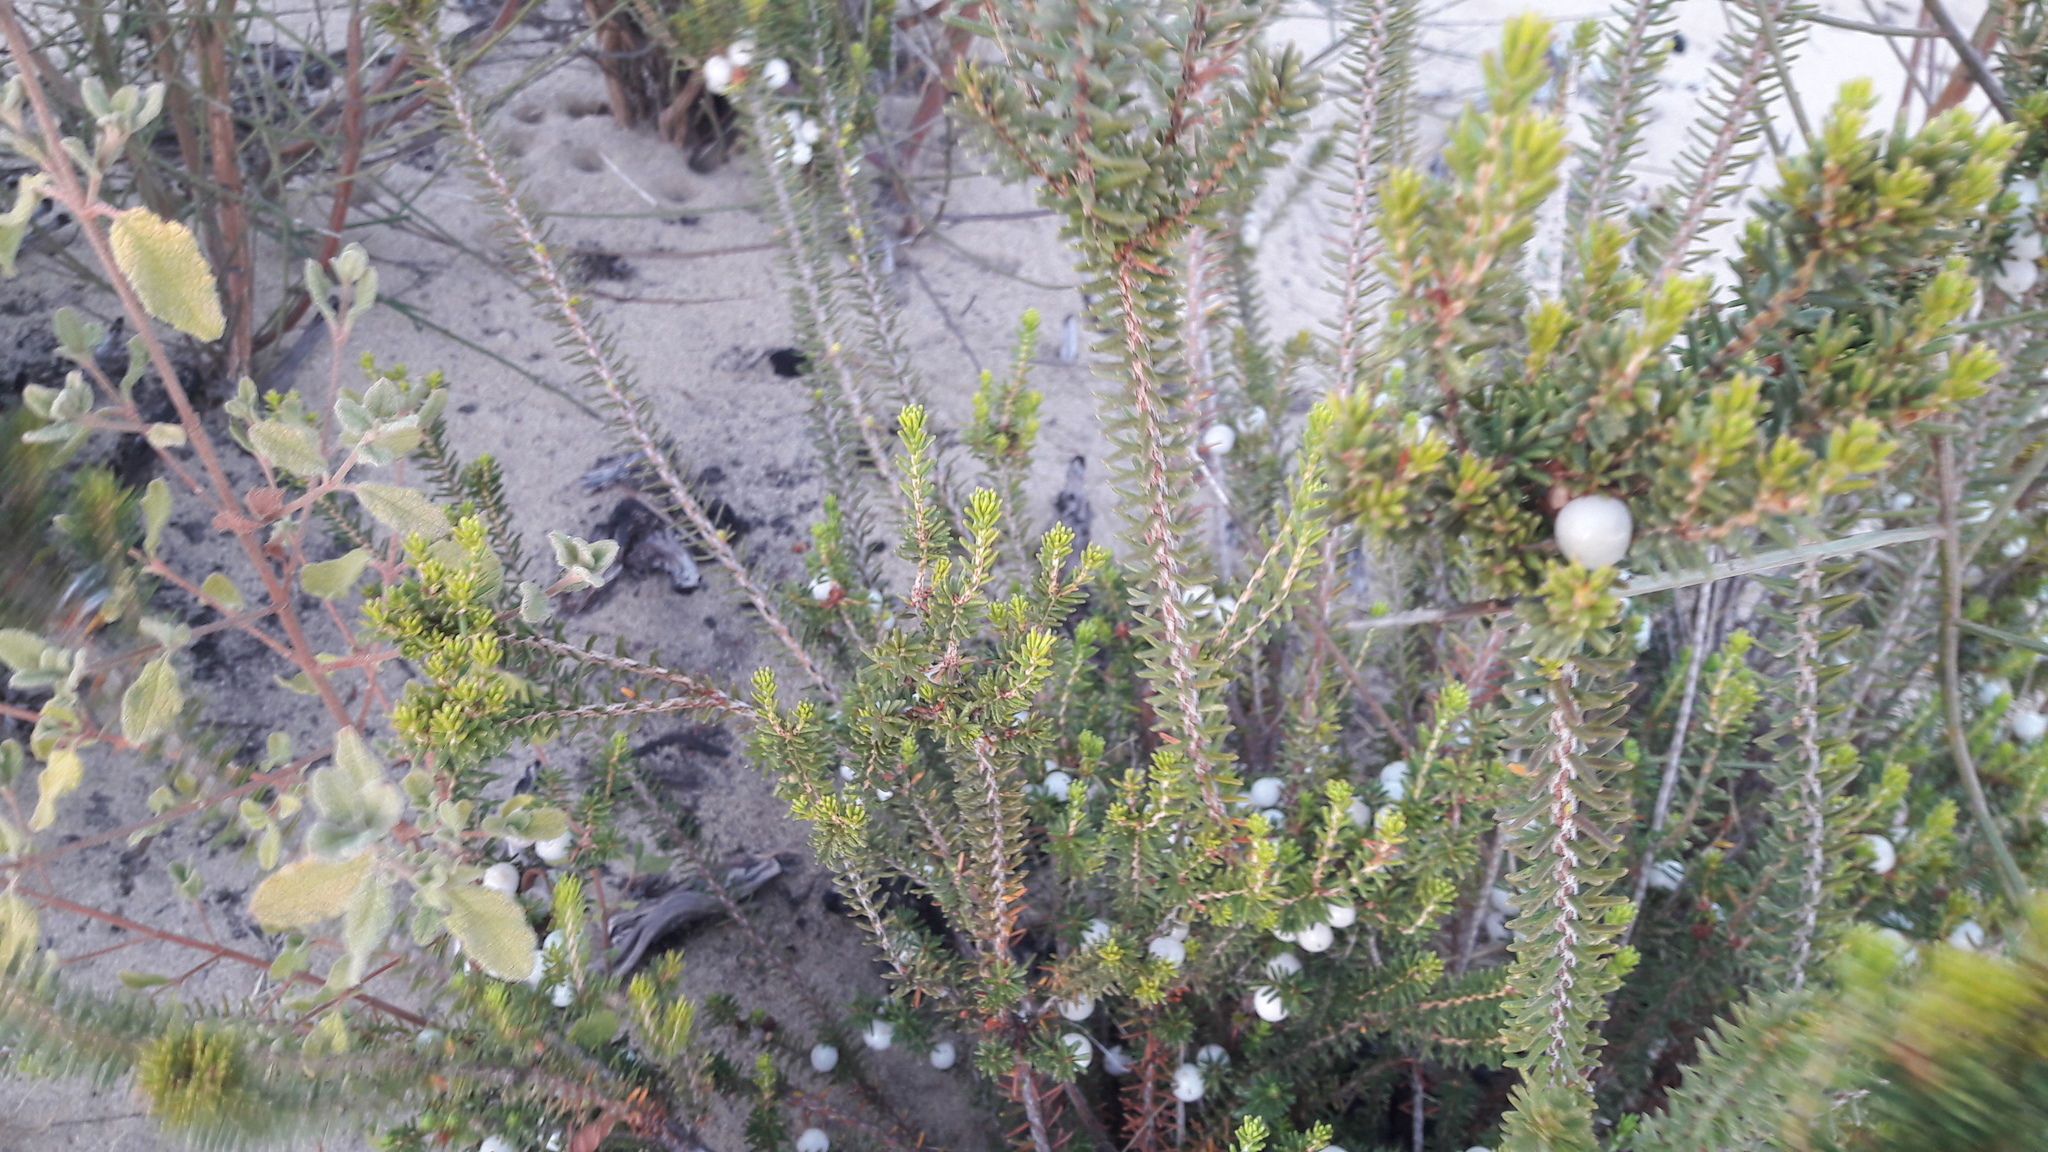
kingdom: Plantae
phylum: Tracheophyta
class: Magnoliopsida
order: Ericales
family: Ericaceae
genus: Corema
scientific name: Corema album
